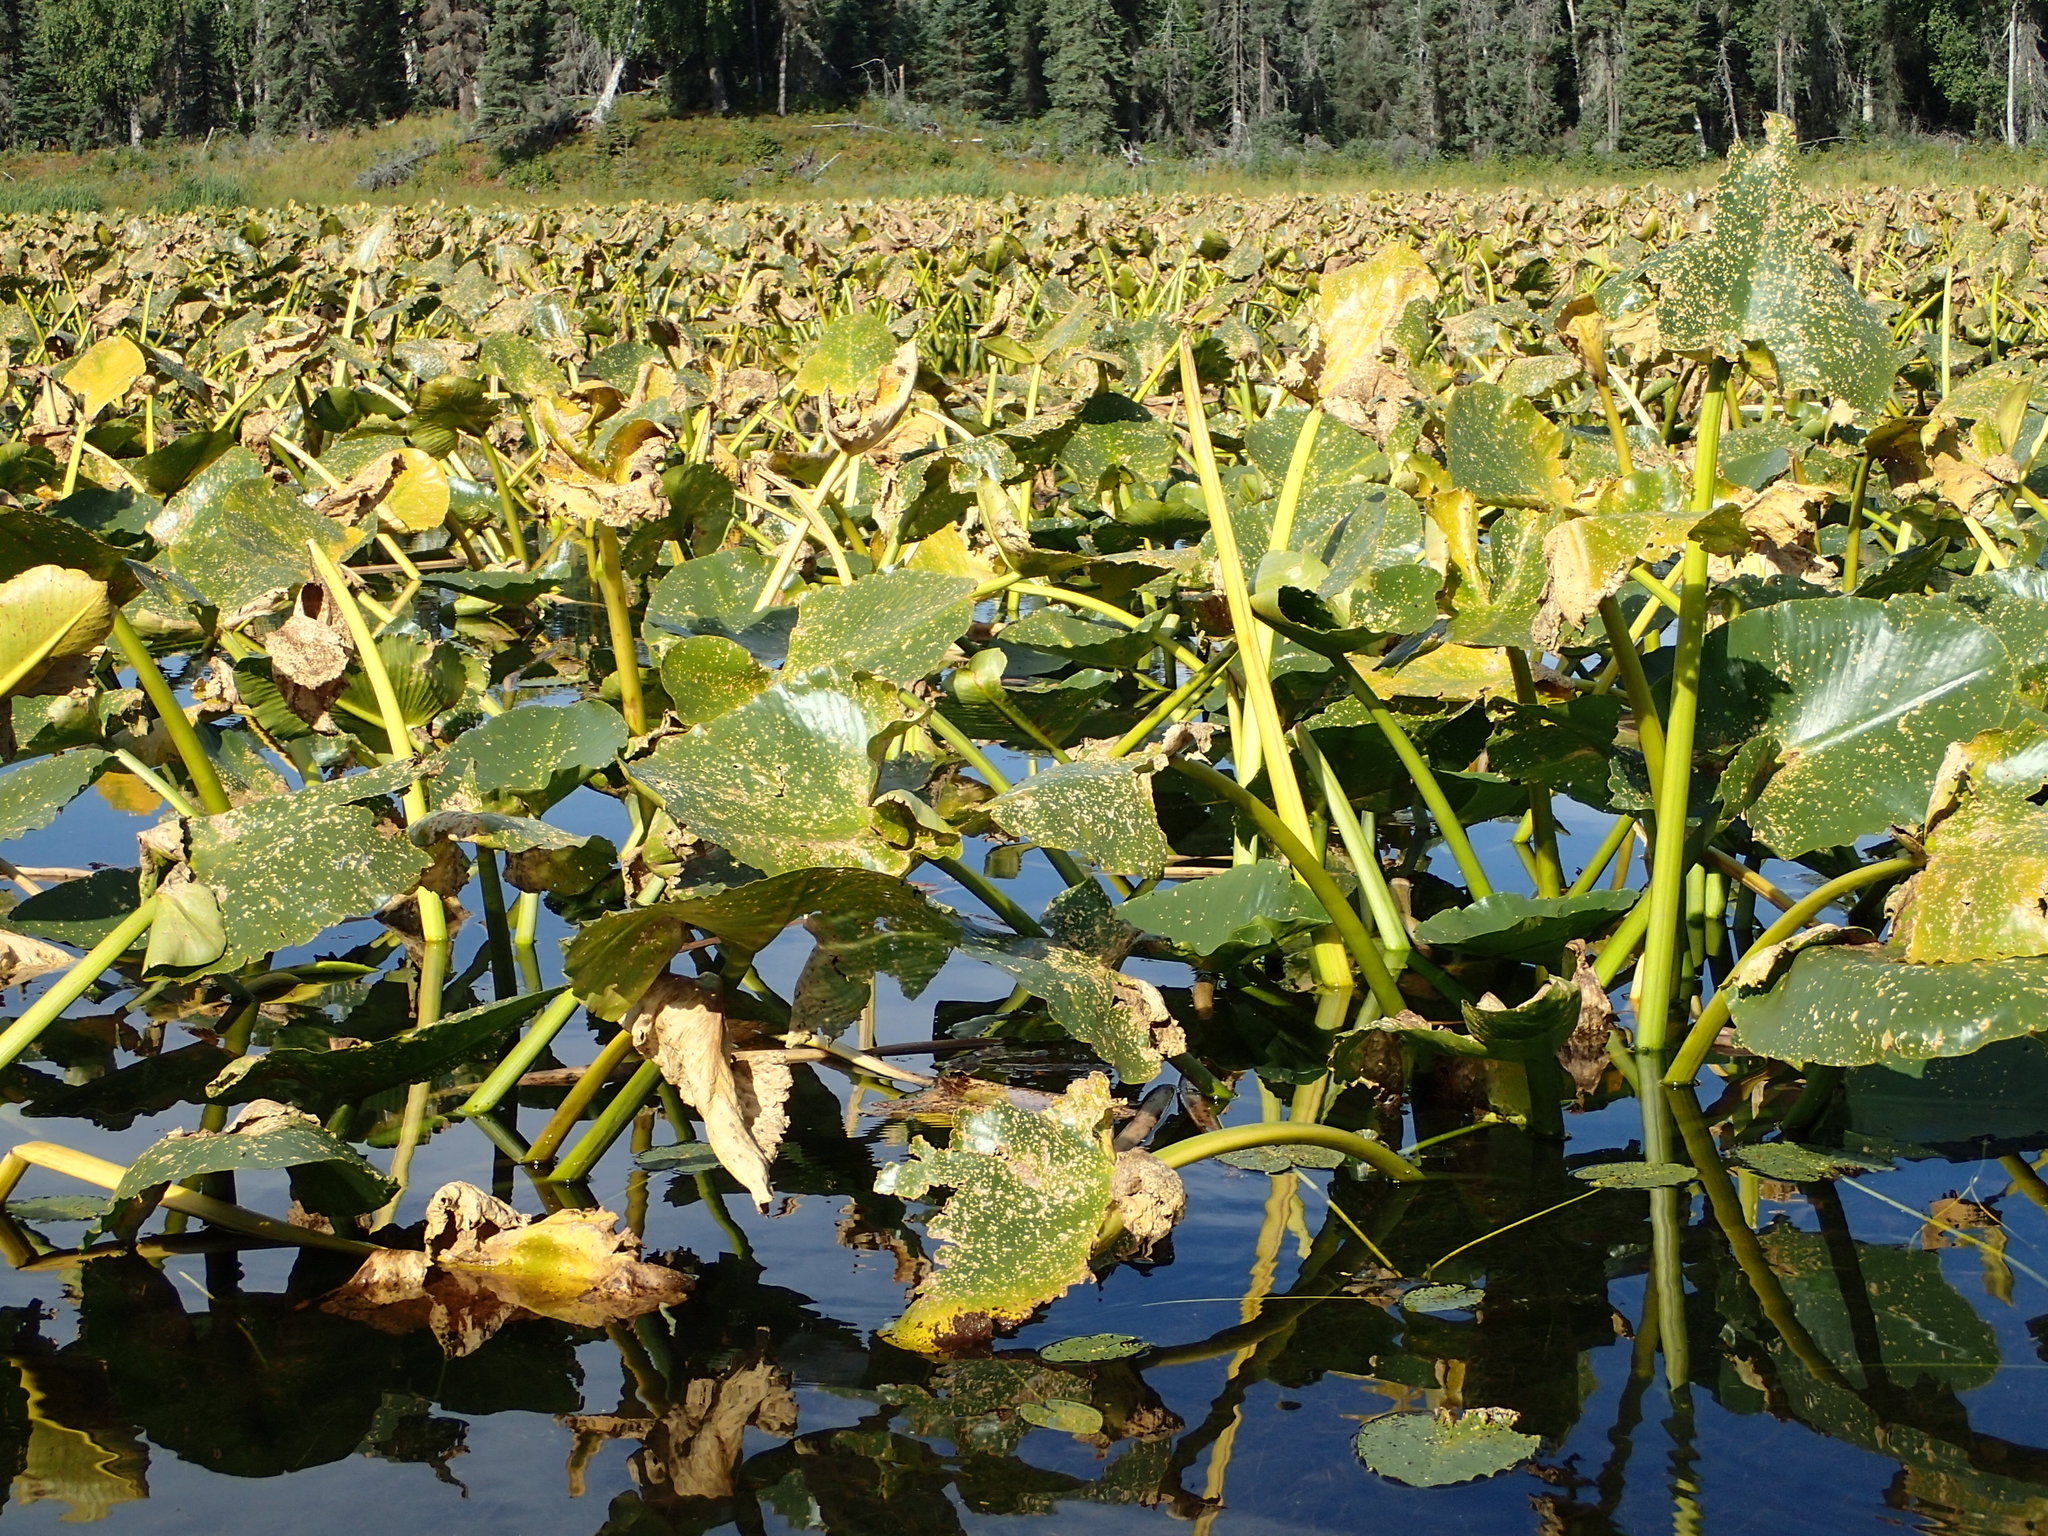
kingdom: Plantae
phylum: Tracheophyta
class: Magnoliopsida
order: Nymphaeales
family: Nymphaeaceae
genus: Nuphar
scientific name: Nuphar polysepala
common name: Rocky mountain cow-lily
